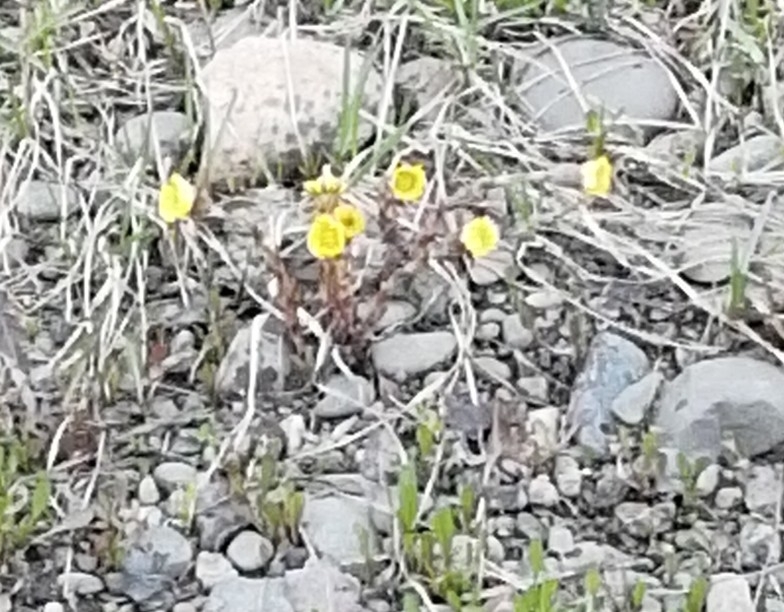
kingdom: Plantae
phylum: Tracheophyta
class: Magnoliopsida
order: Asterales
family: Asteraceae
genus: Tussilago
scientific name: Tussilago farfara
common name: Coltsfoot
